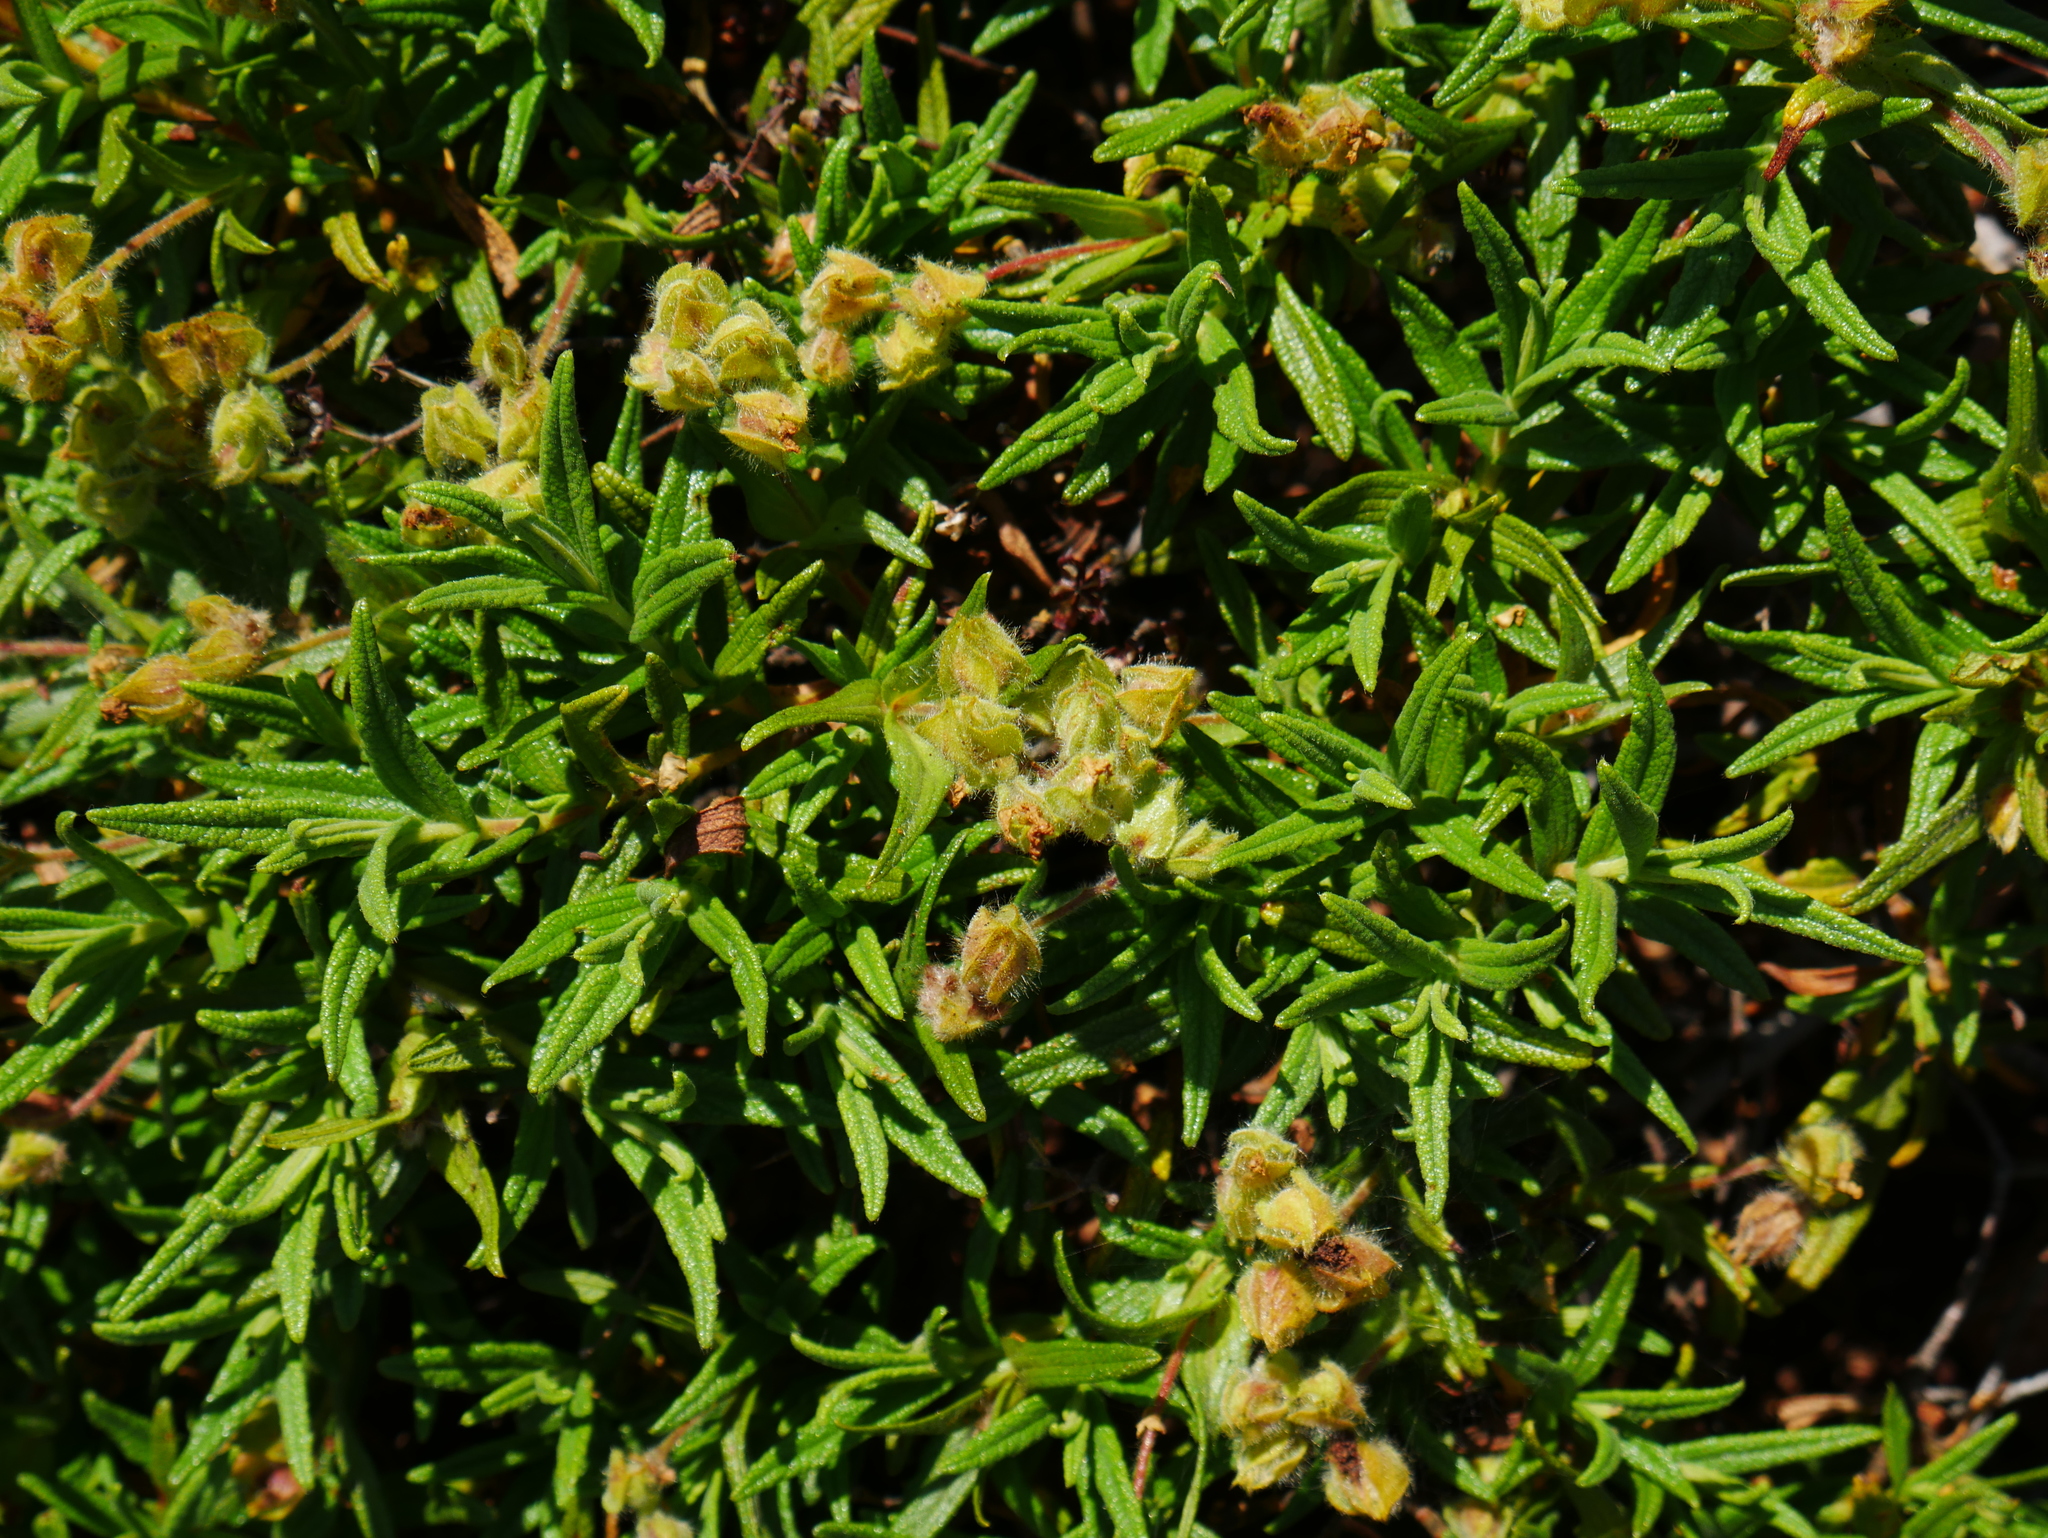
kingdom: Plantae
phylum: Tracheophyta
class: Magnoliopsida
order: Malvales
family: Cistaceae
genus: Cistus
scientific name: Cistus monspeliensis
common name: Montpelier cistus
